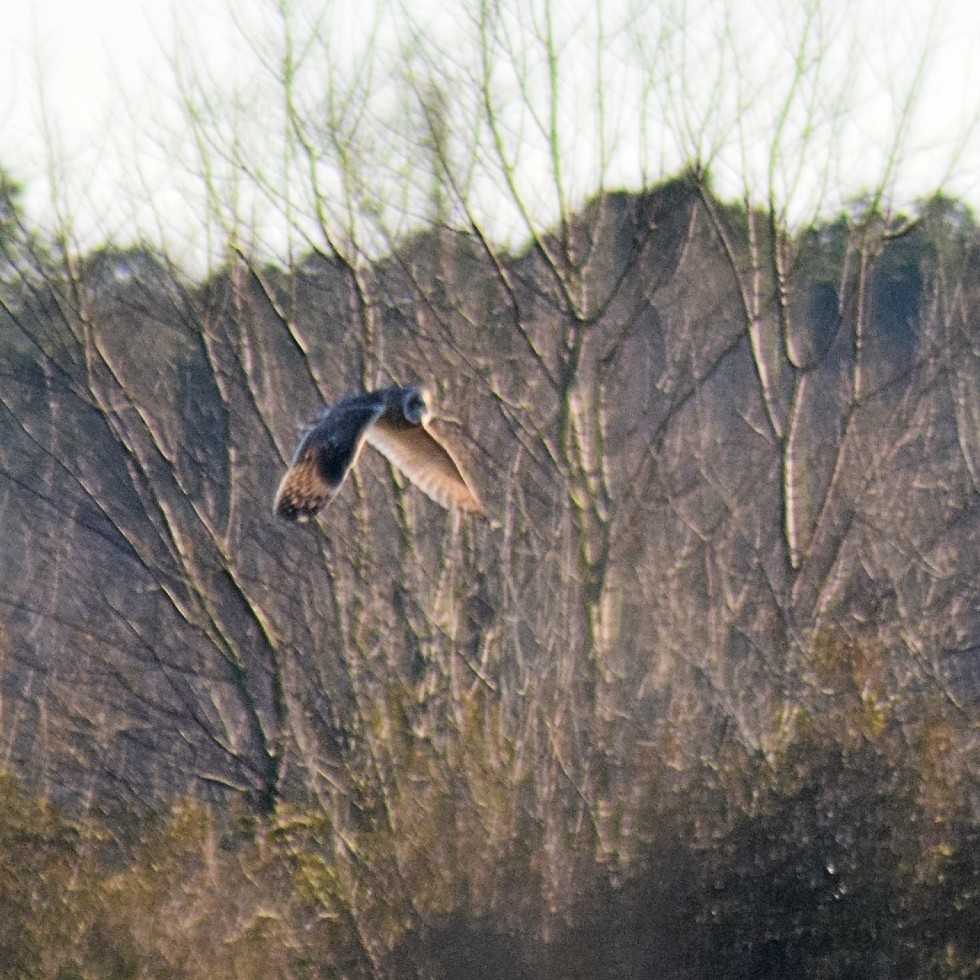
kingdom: Animalia
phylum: Chordata
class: Aves
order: Strigiformes
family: Strigidae
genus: Asio
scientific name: Asio flammeus
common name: Short-eared owl
